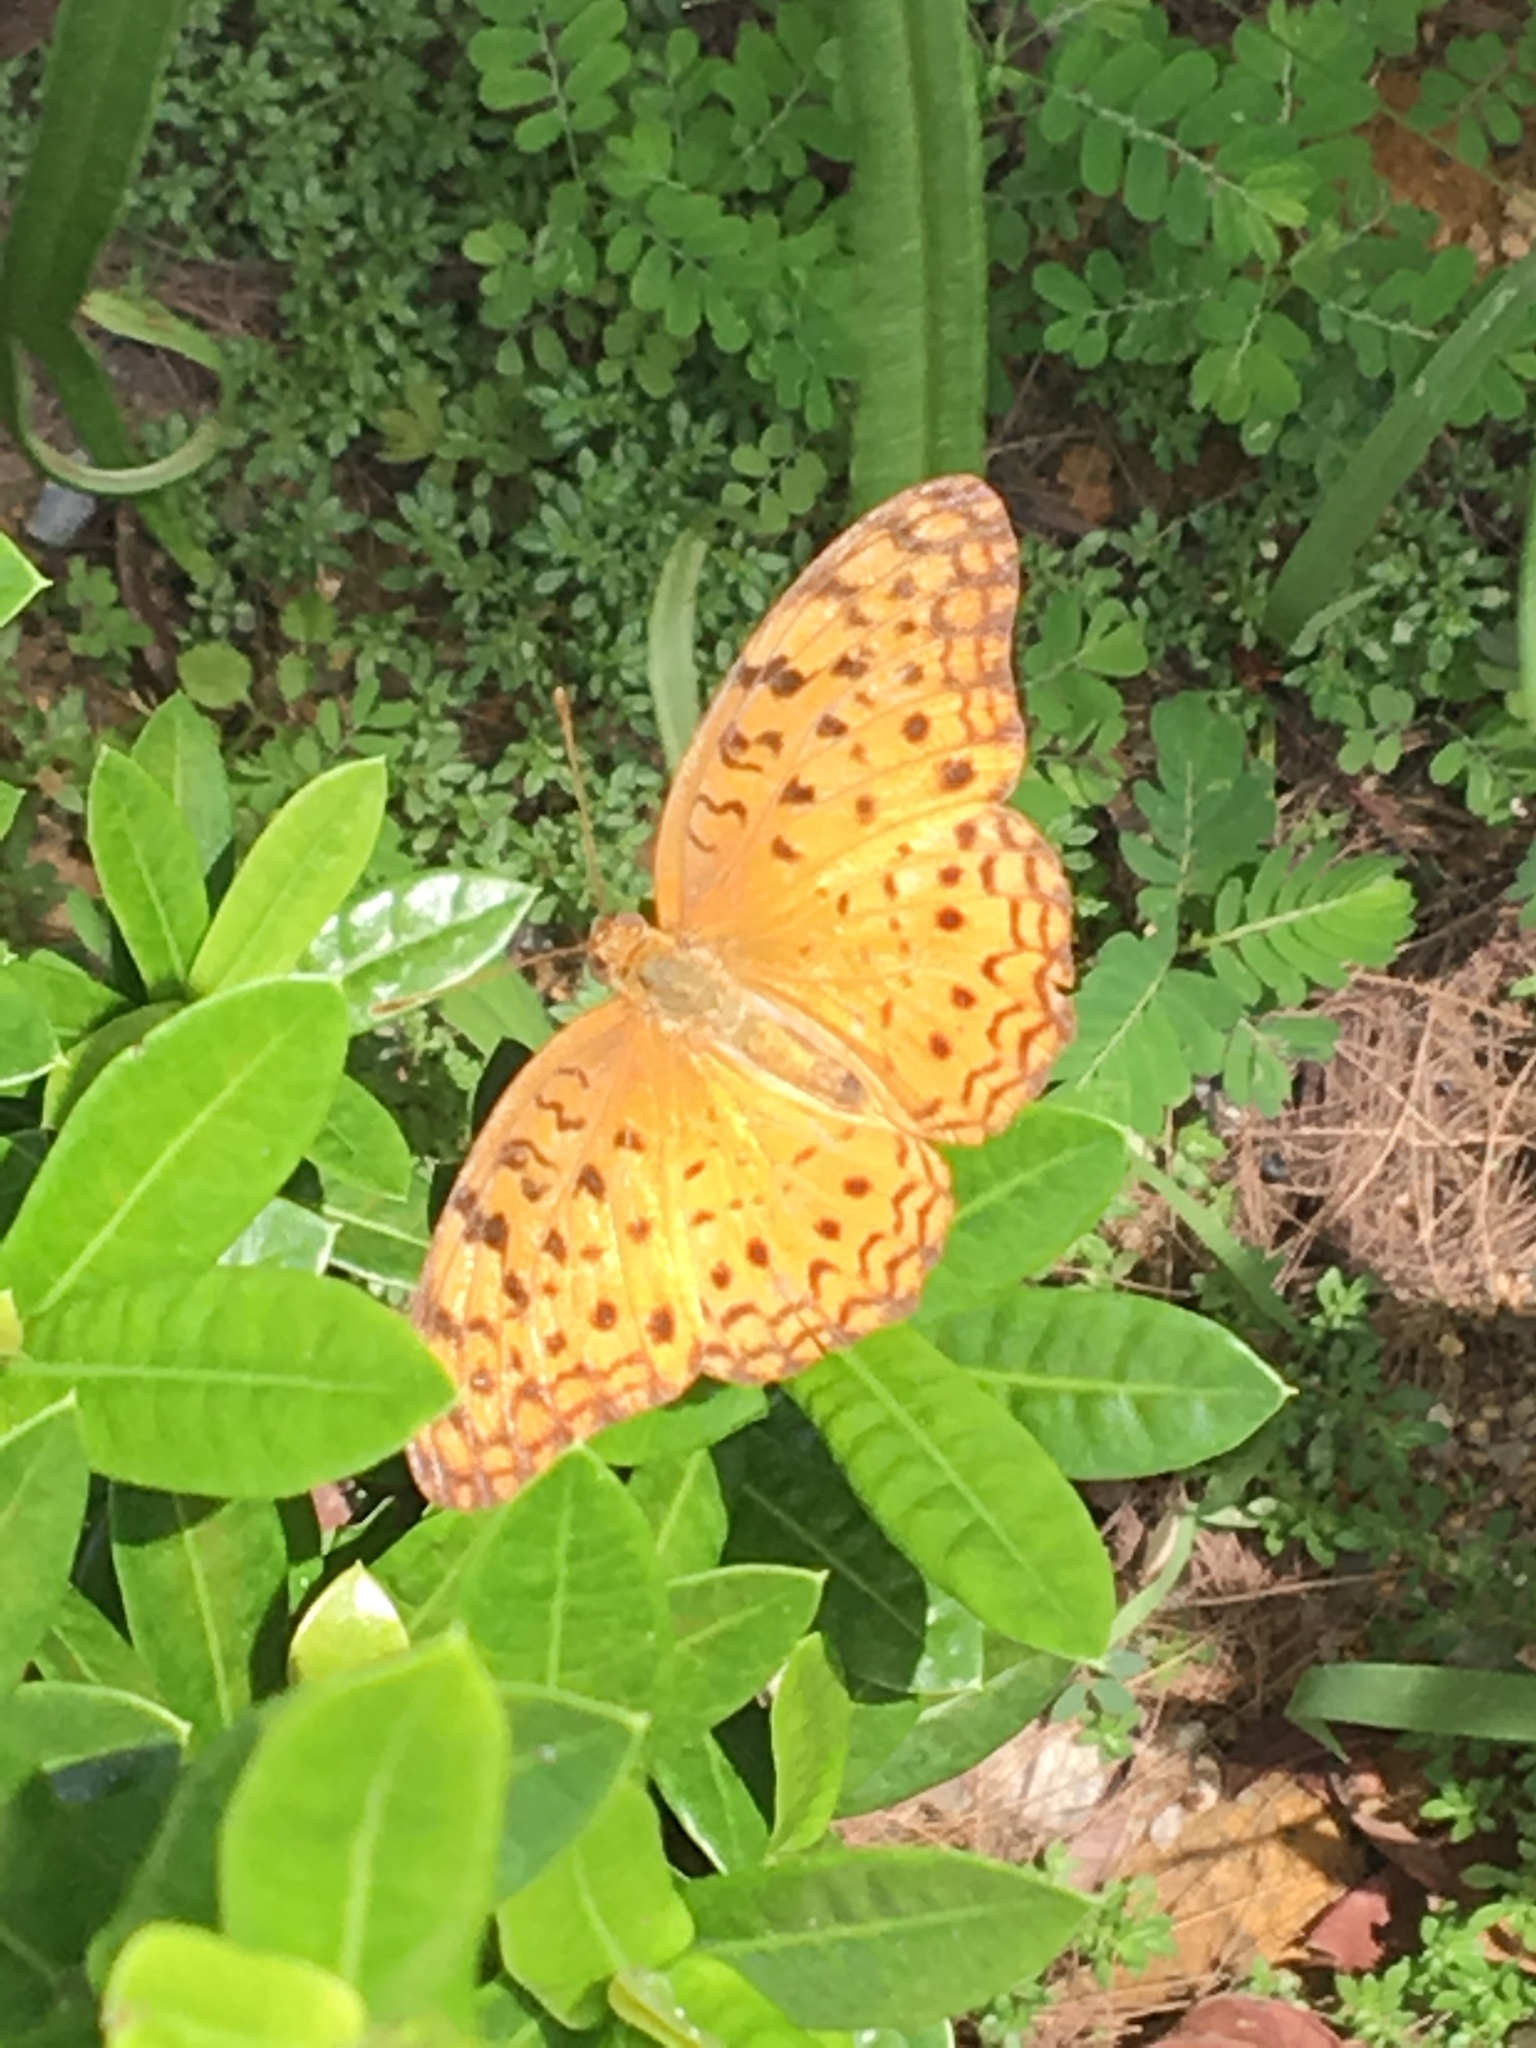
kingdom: Animalia
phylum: Arthropoda
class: Insecta
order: Lepidoptera
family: Nymphalidae
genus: Phalanta
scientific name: Phalanta phalantha
